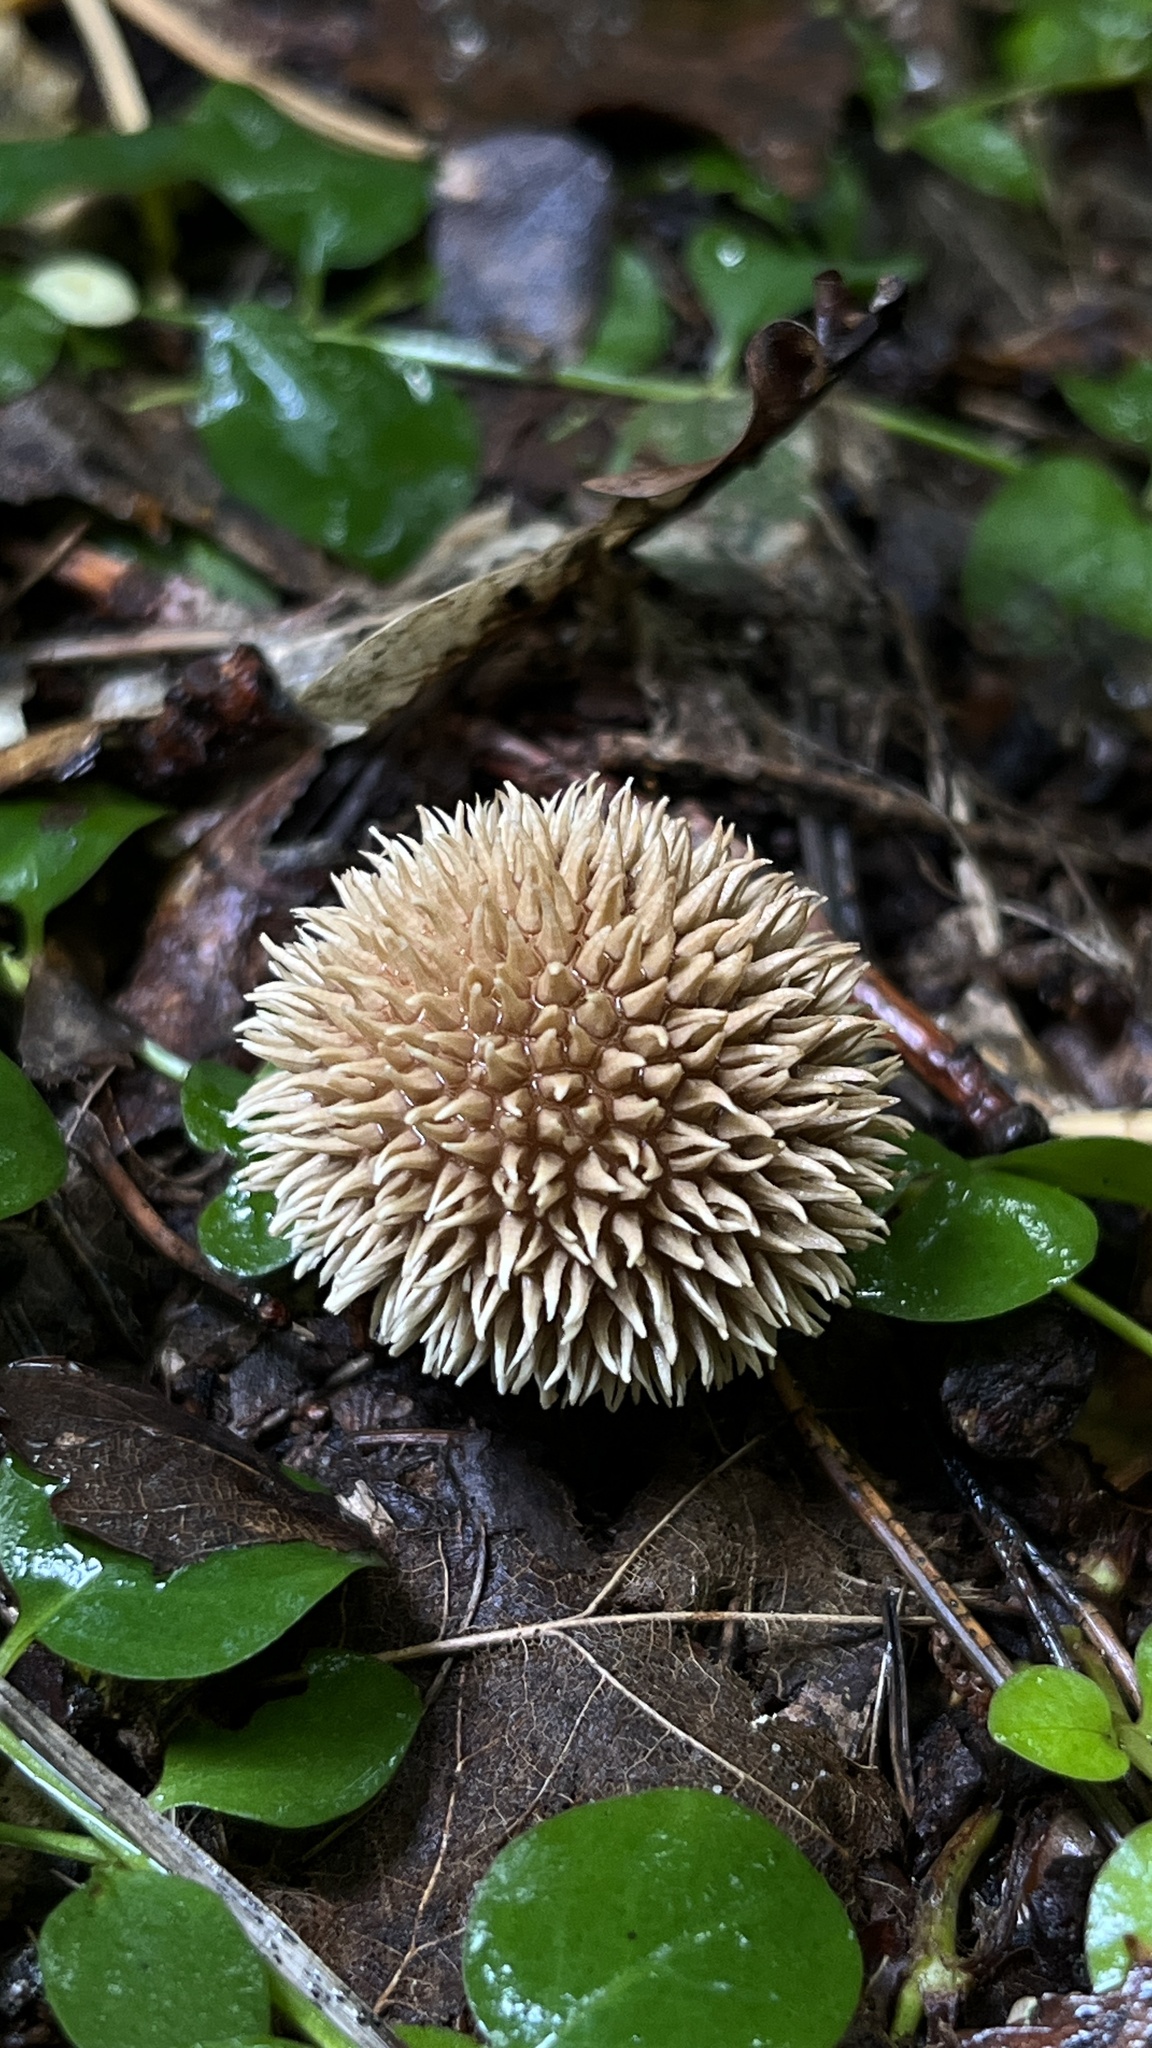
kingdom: Fungi
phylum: Basidiomycota
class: Agaricomycetes
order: Agaricales
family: Lycoperdaceae
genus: Lycoperdon
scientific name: Lycoperdon echinatum
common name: Hedgehog puffball
